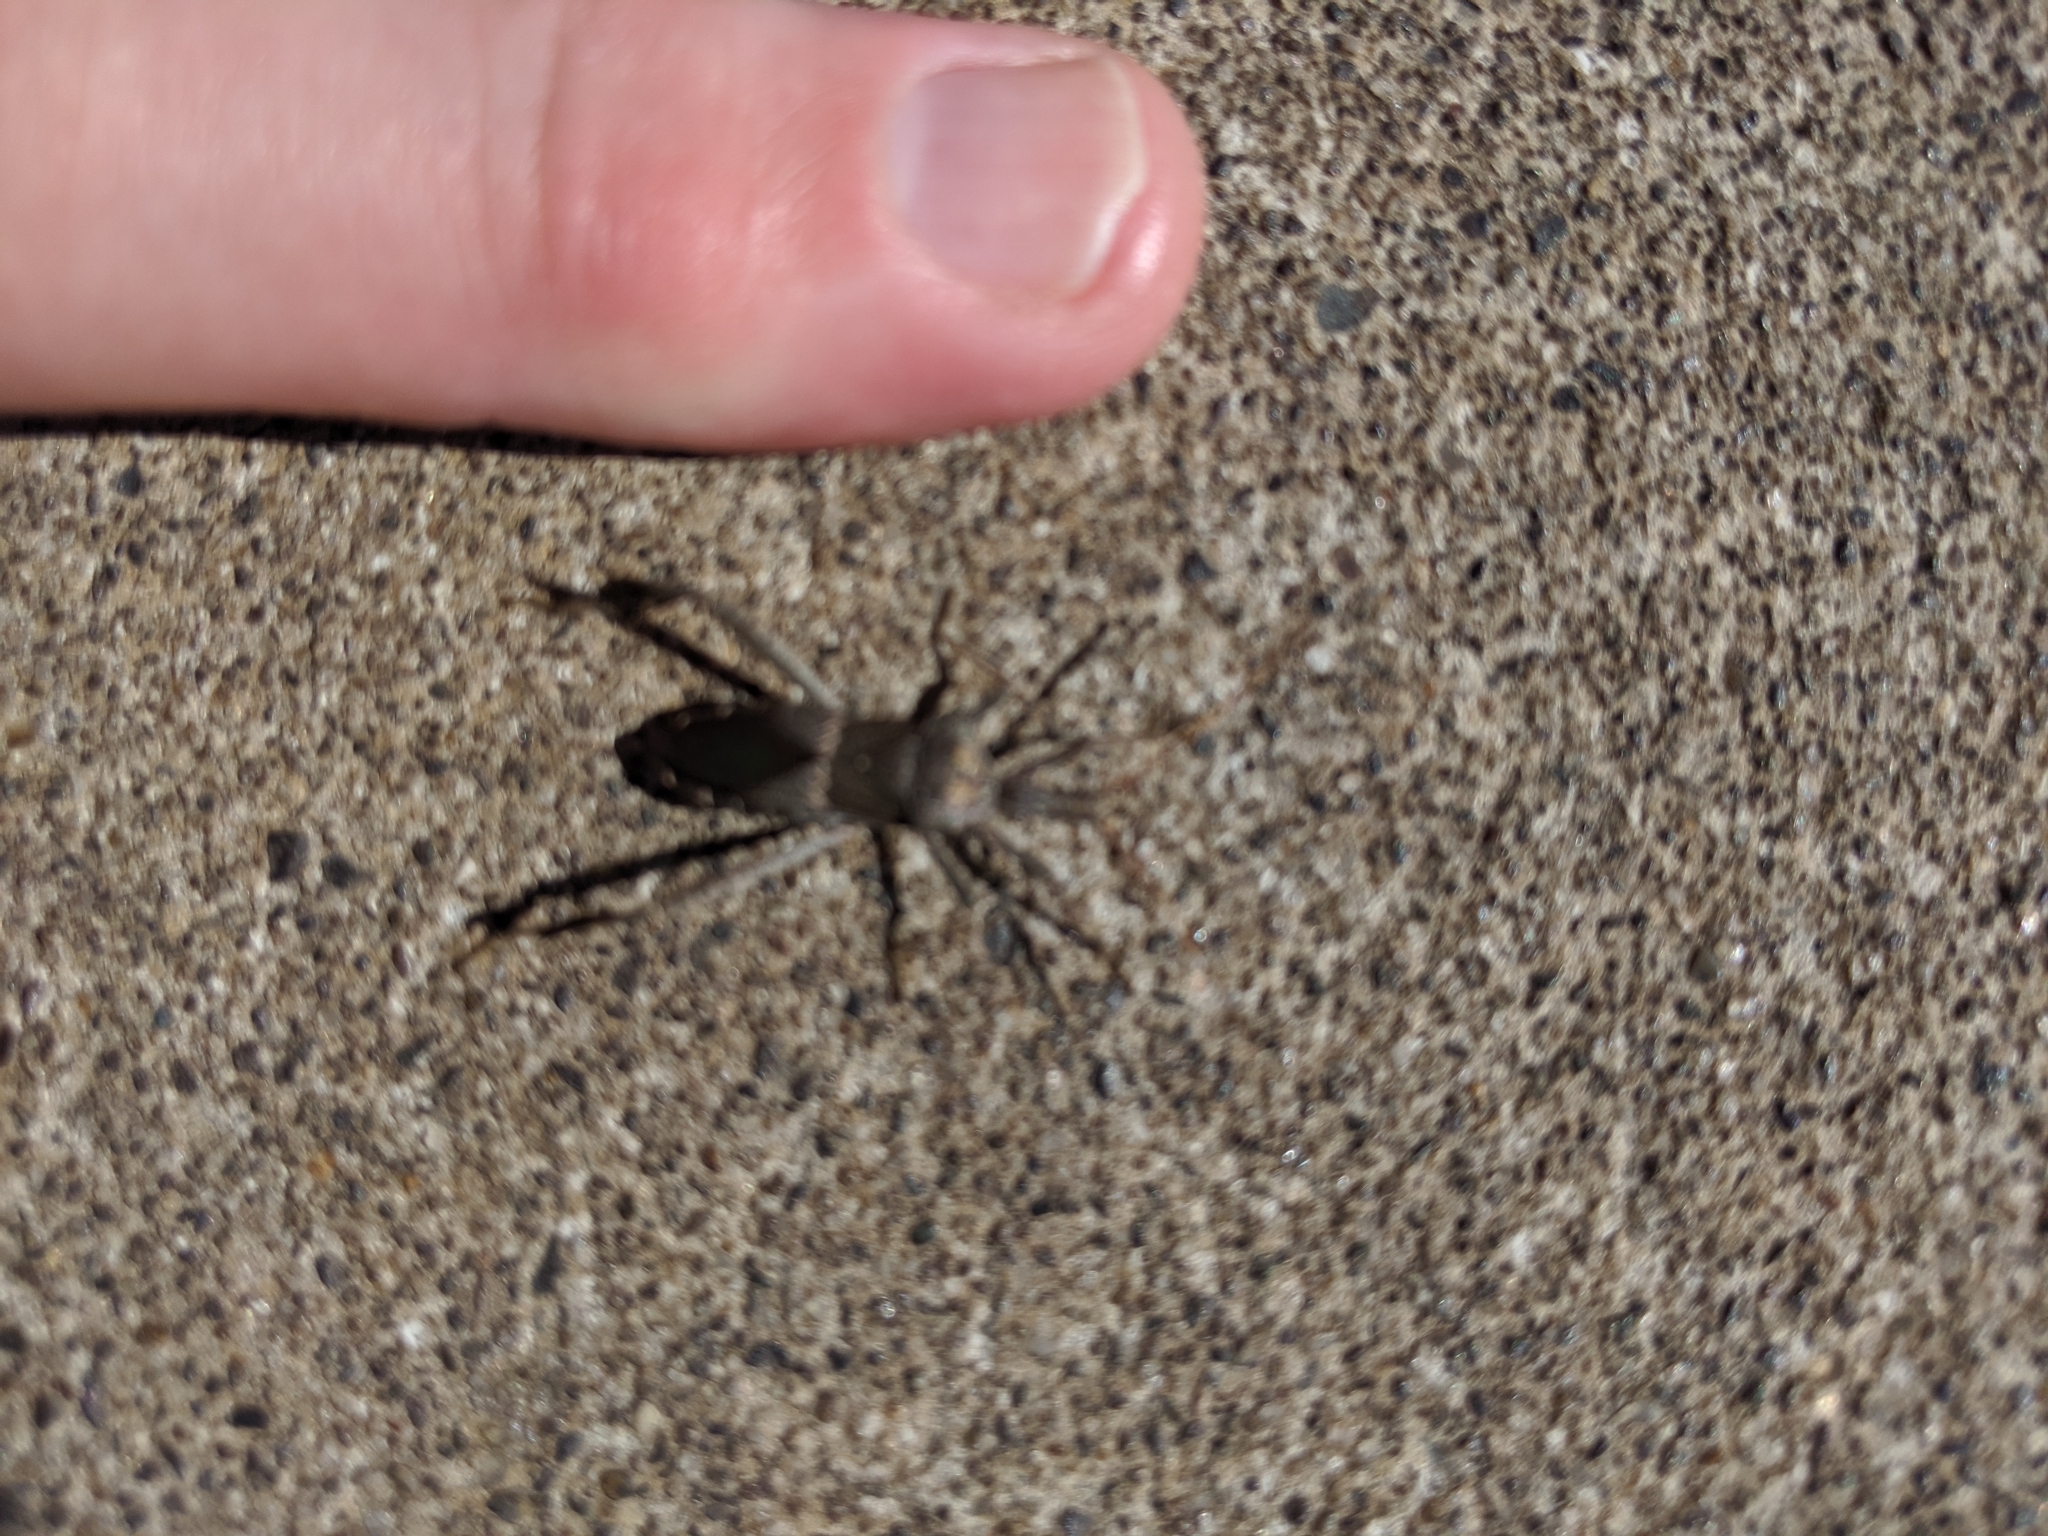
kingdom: Animalia
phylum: Arthropoda
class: Insecta
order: Hemiptera
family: Coreidae
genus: Leptoglossus
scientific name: Leptoglossus zonatus
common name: Large-legged bug
